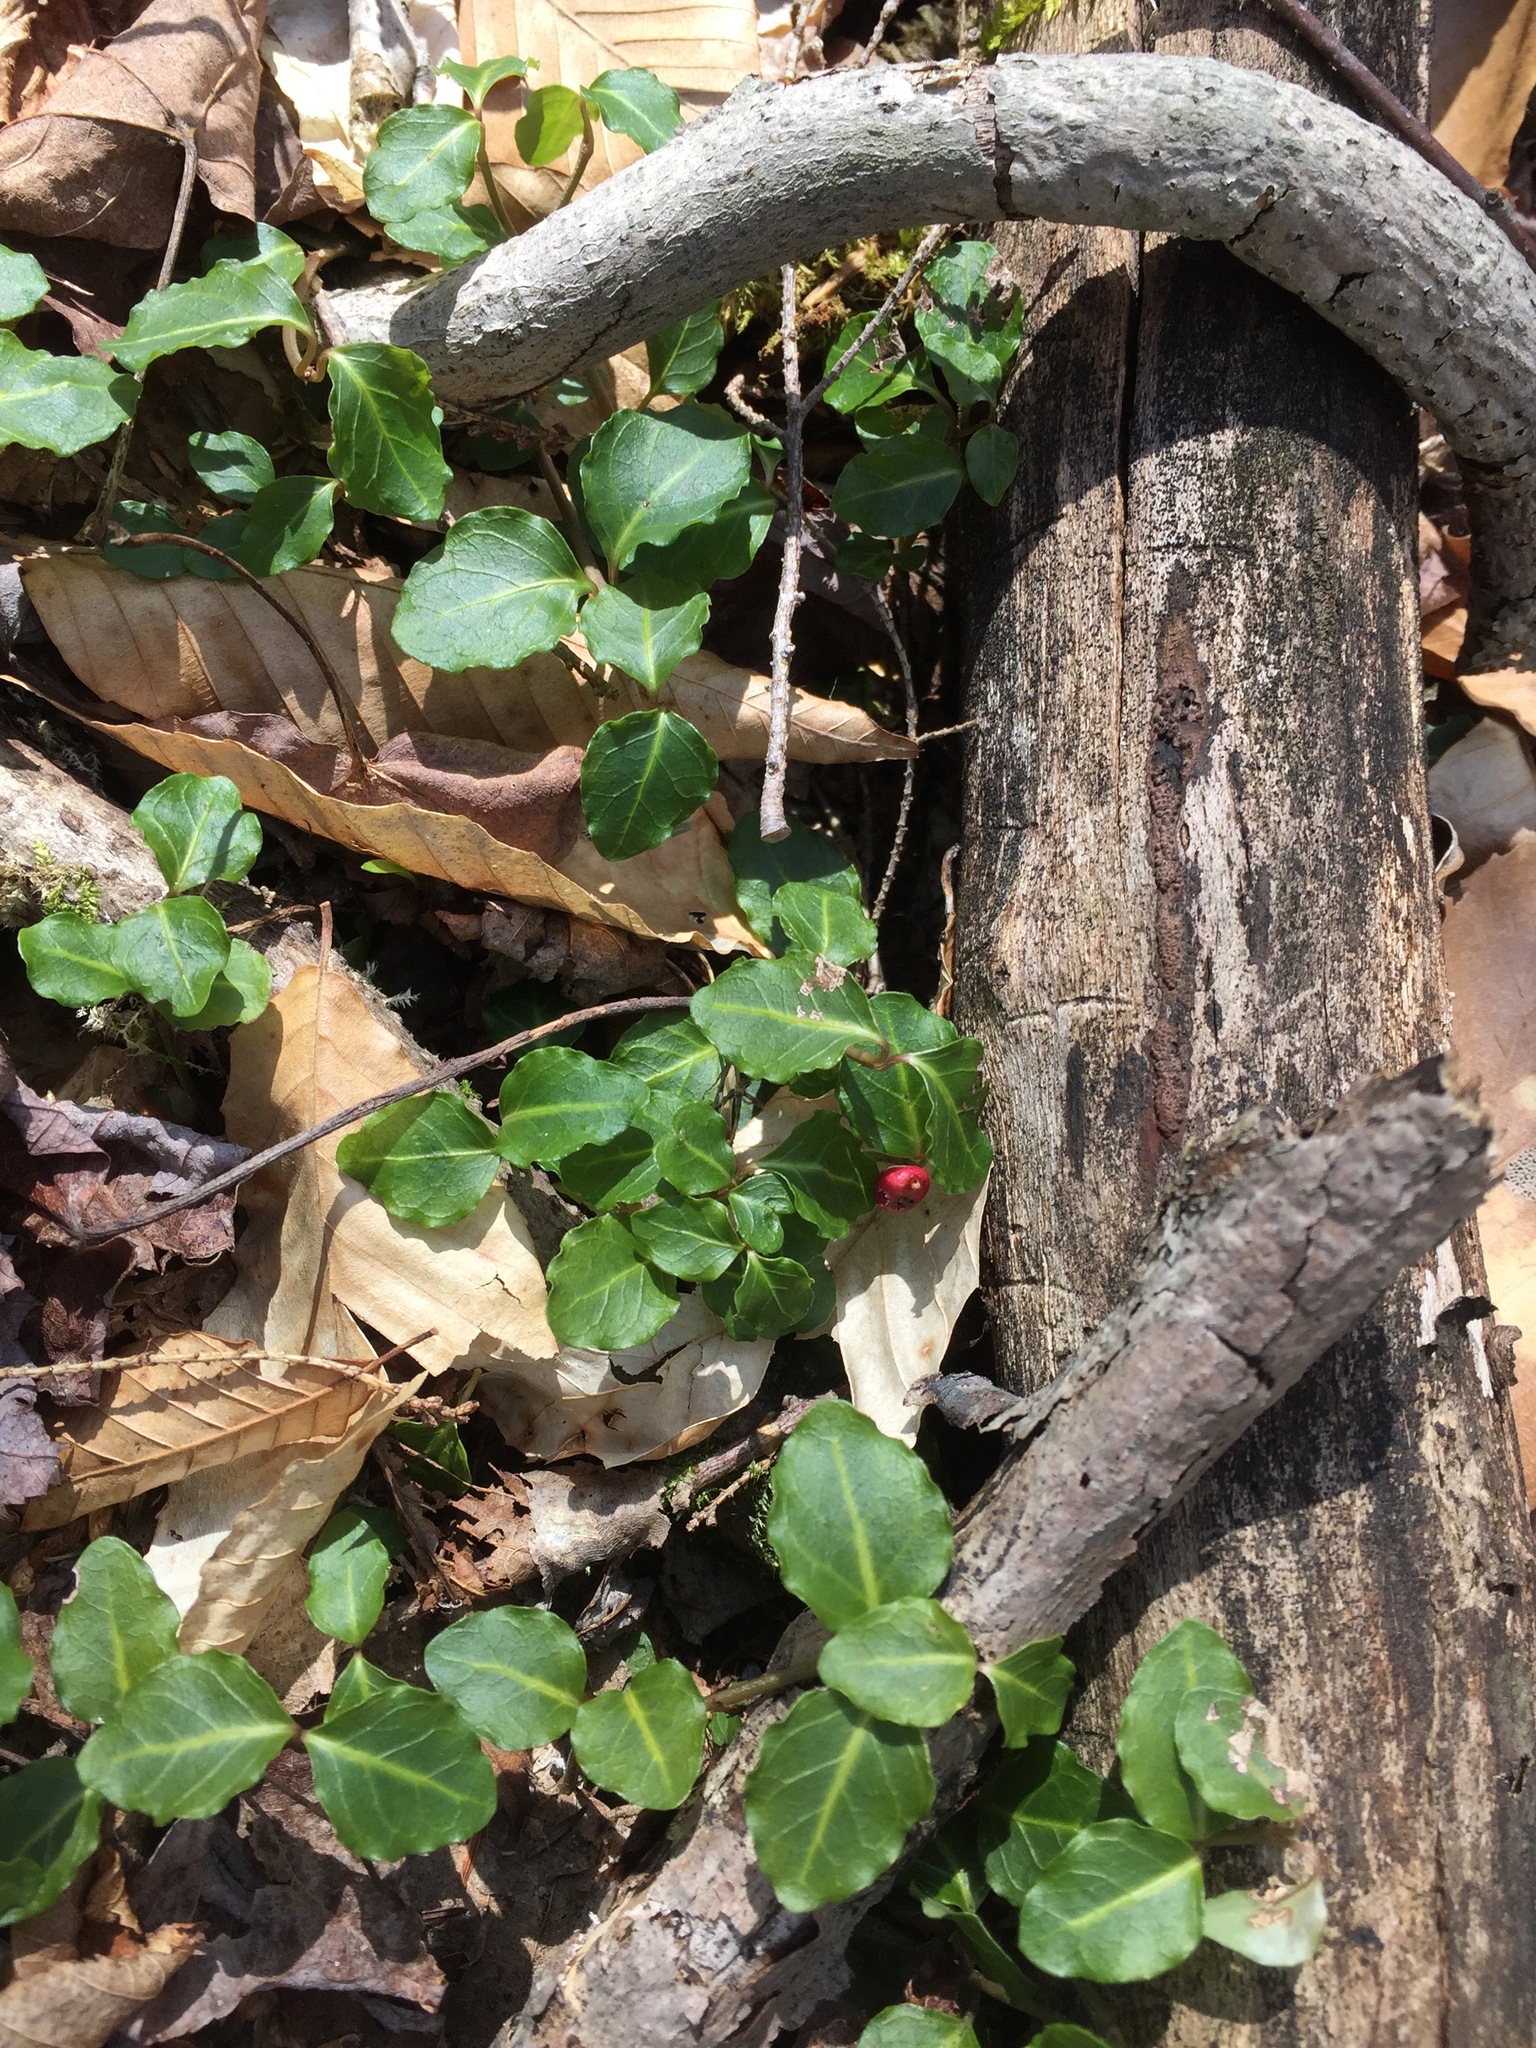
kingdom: Plantae
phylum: Tracheophyta
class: Magnoliopsida
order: Gentianales
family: Rubiaceae
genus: Mitchella
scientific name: Mitchella repens
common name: Partridge-berry
